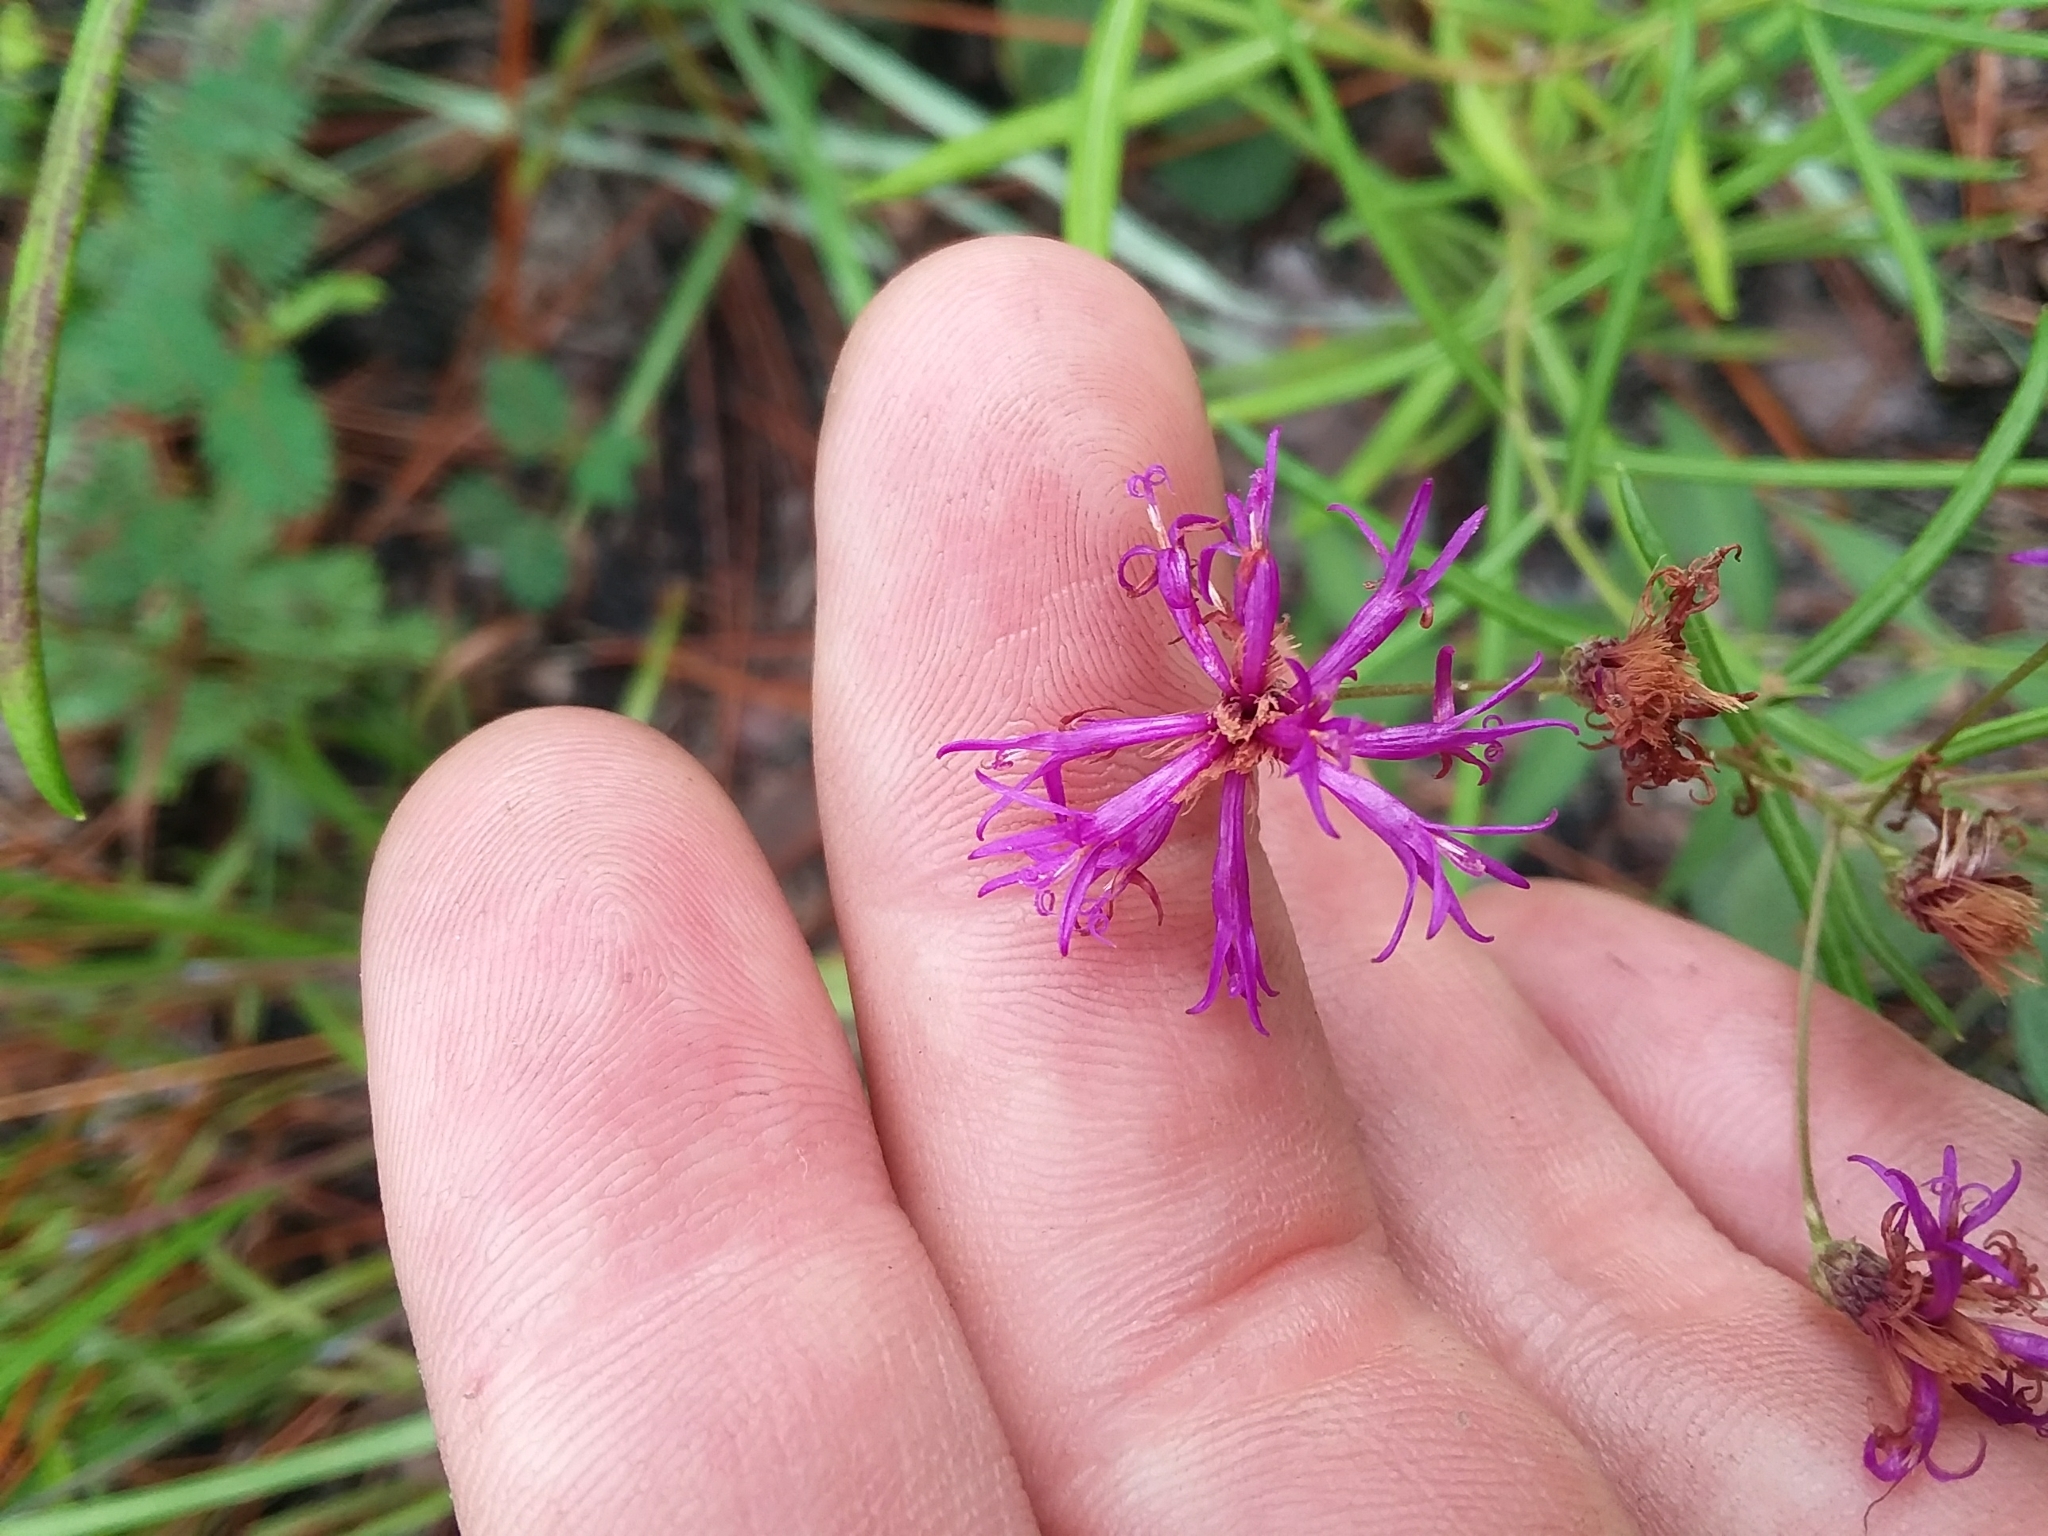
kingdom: Plantae
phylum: Tracheophyta
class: Magnoliopsida
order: Asterales
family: Asteraceae
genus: Vernonia
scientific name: Vernonia angustifolia
